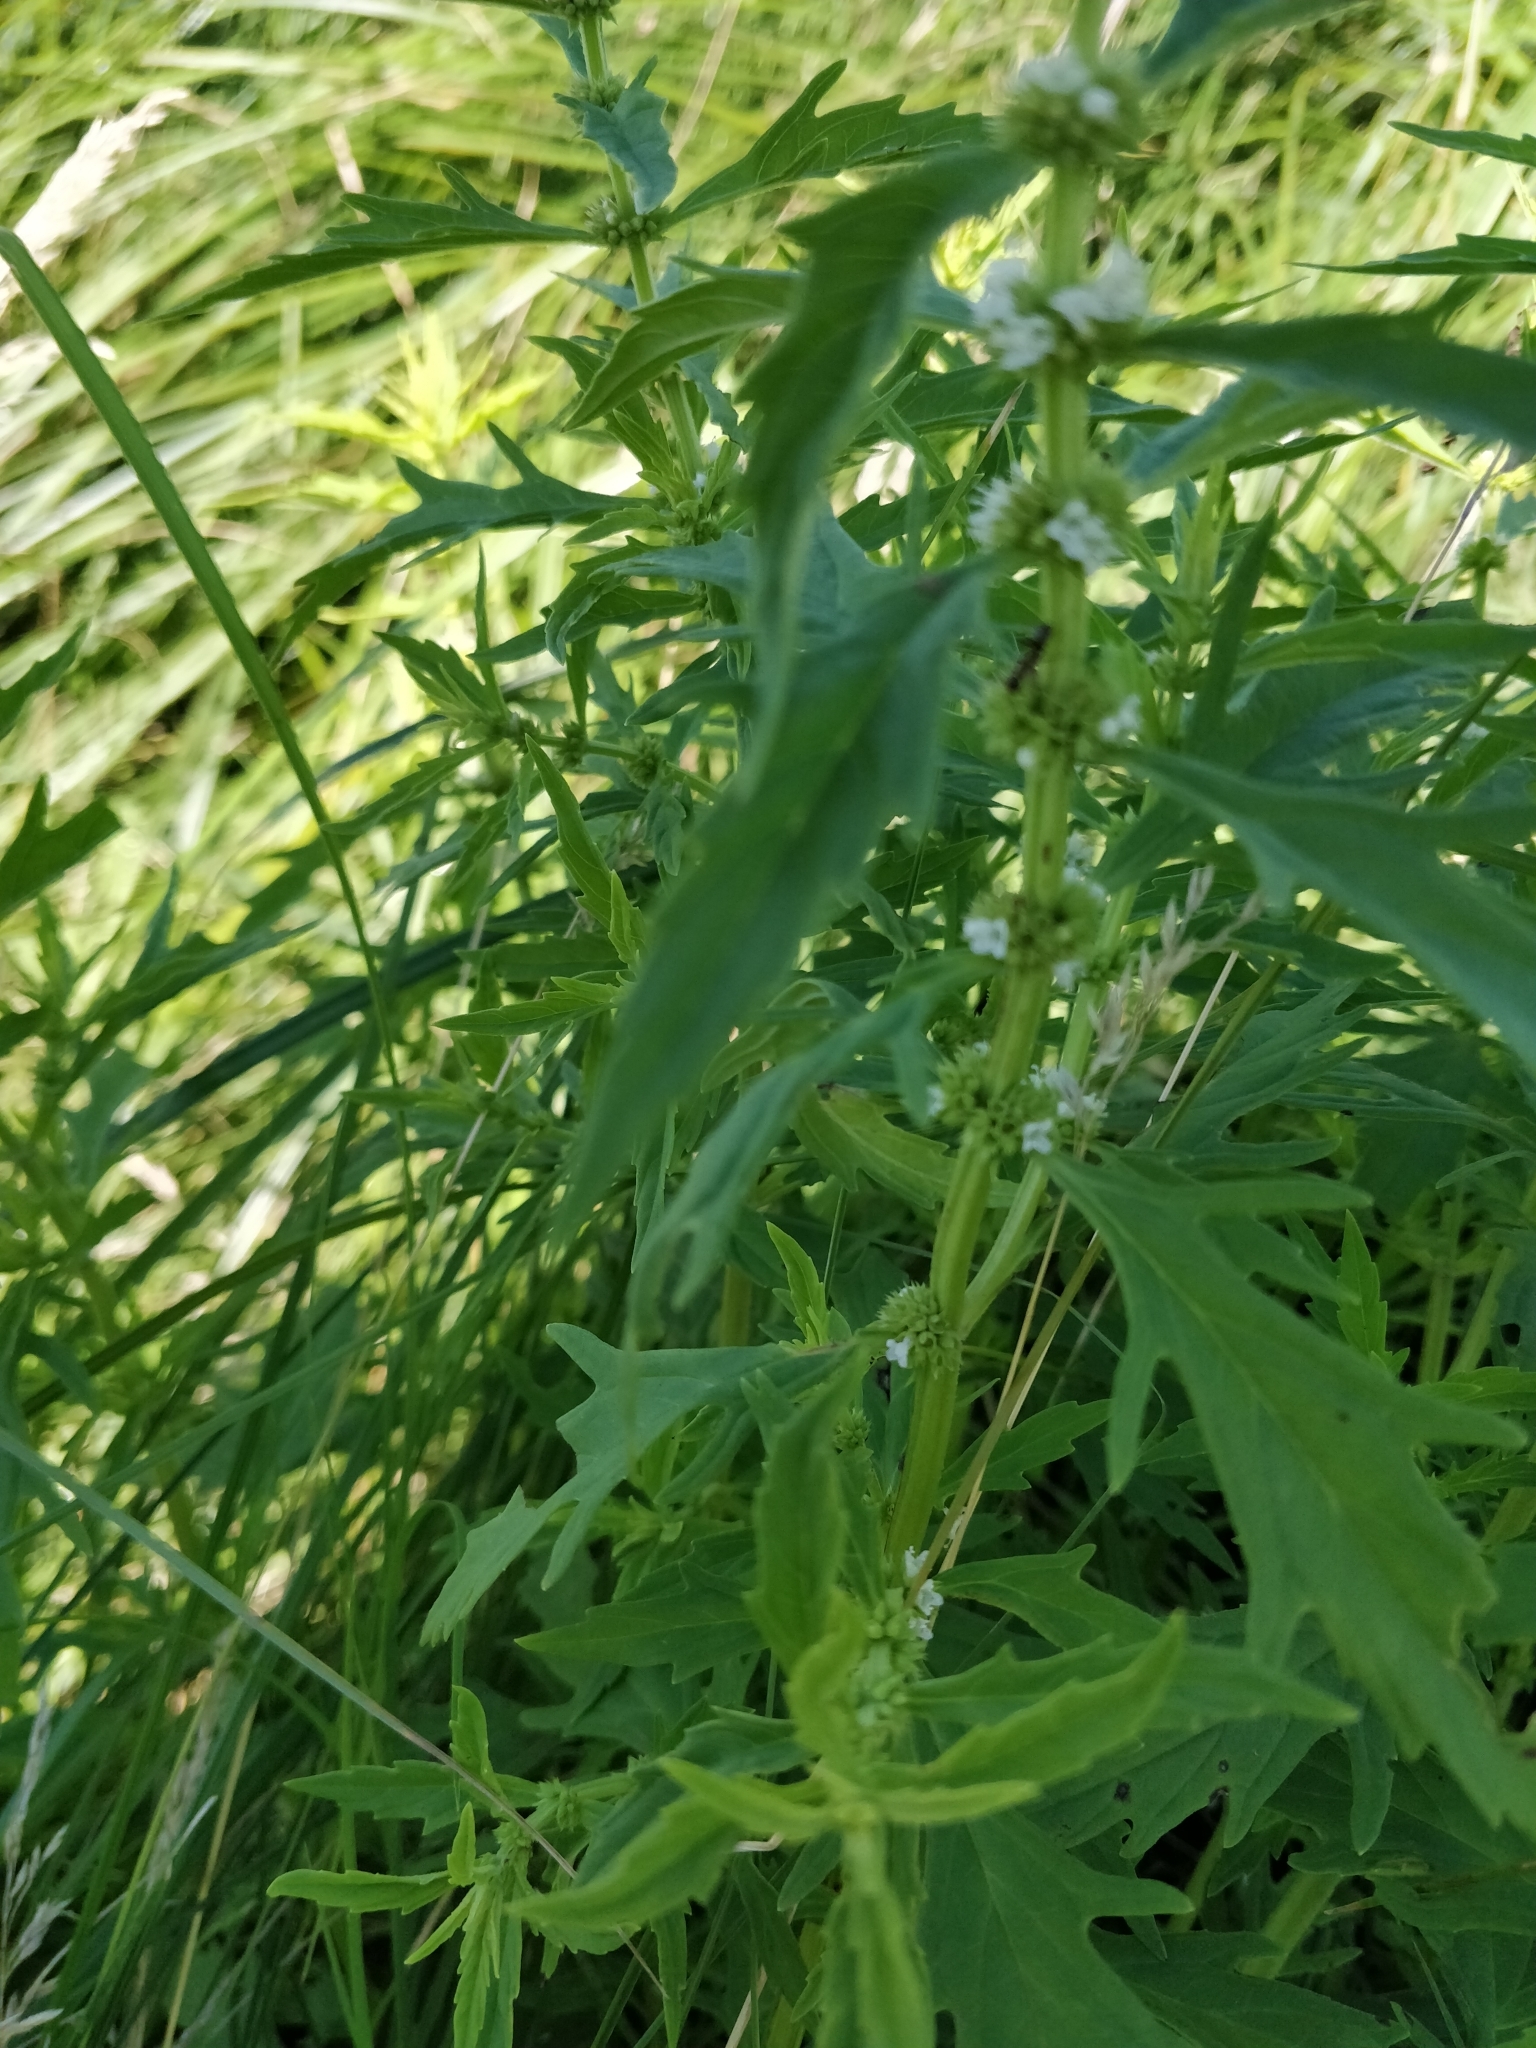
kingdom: Plantae
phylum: Tracheophyta
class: Magnoliopsida
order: Lamiales
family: Lamiaceae
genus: Lycopus
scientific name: Lycopus americanus
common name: American bugleweed
